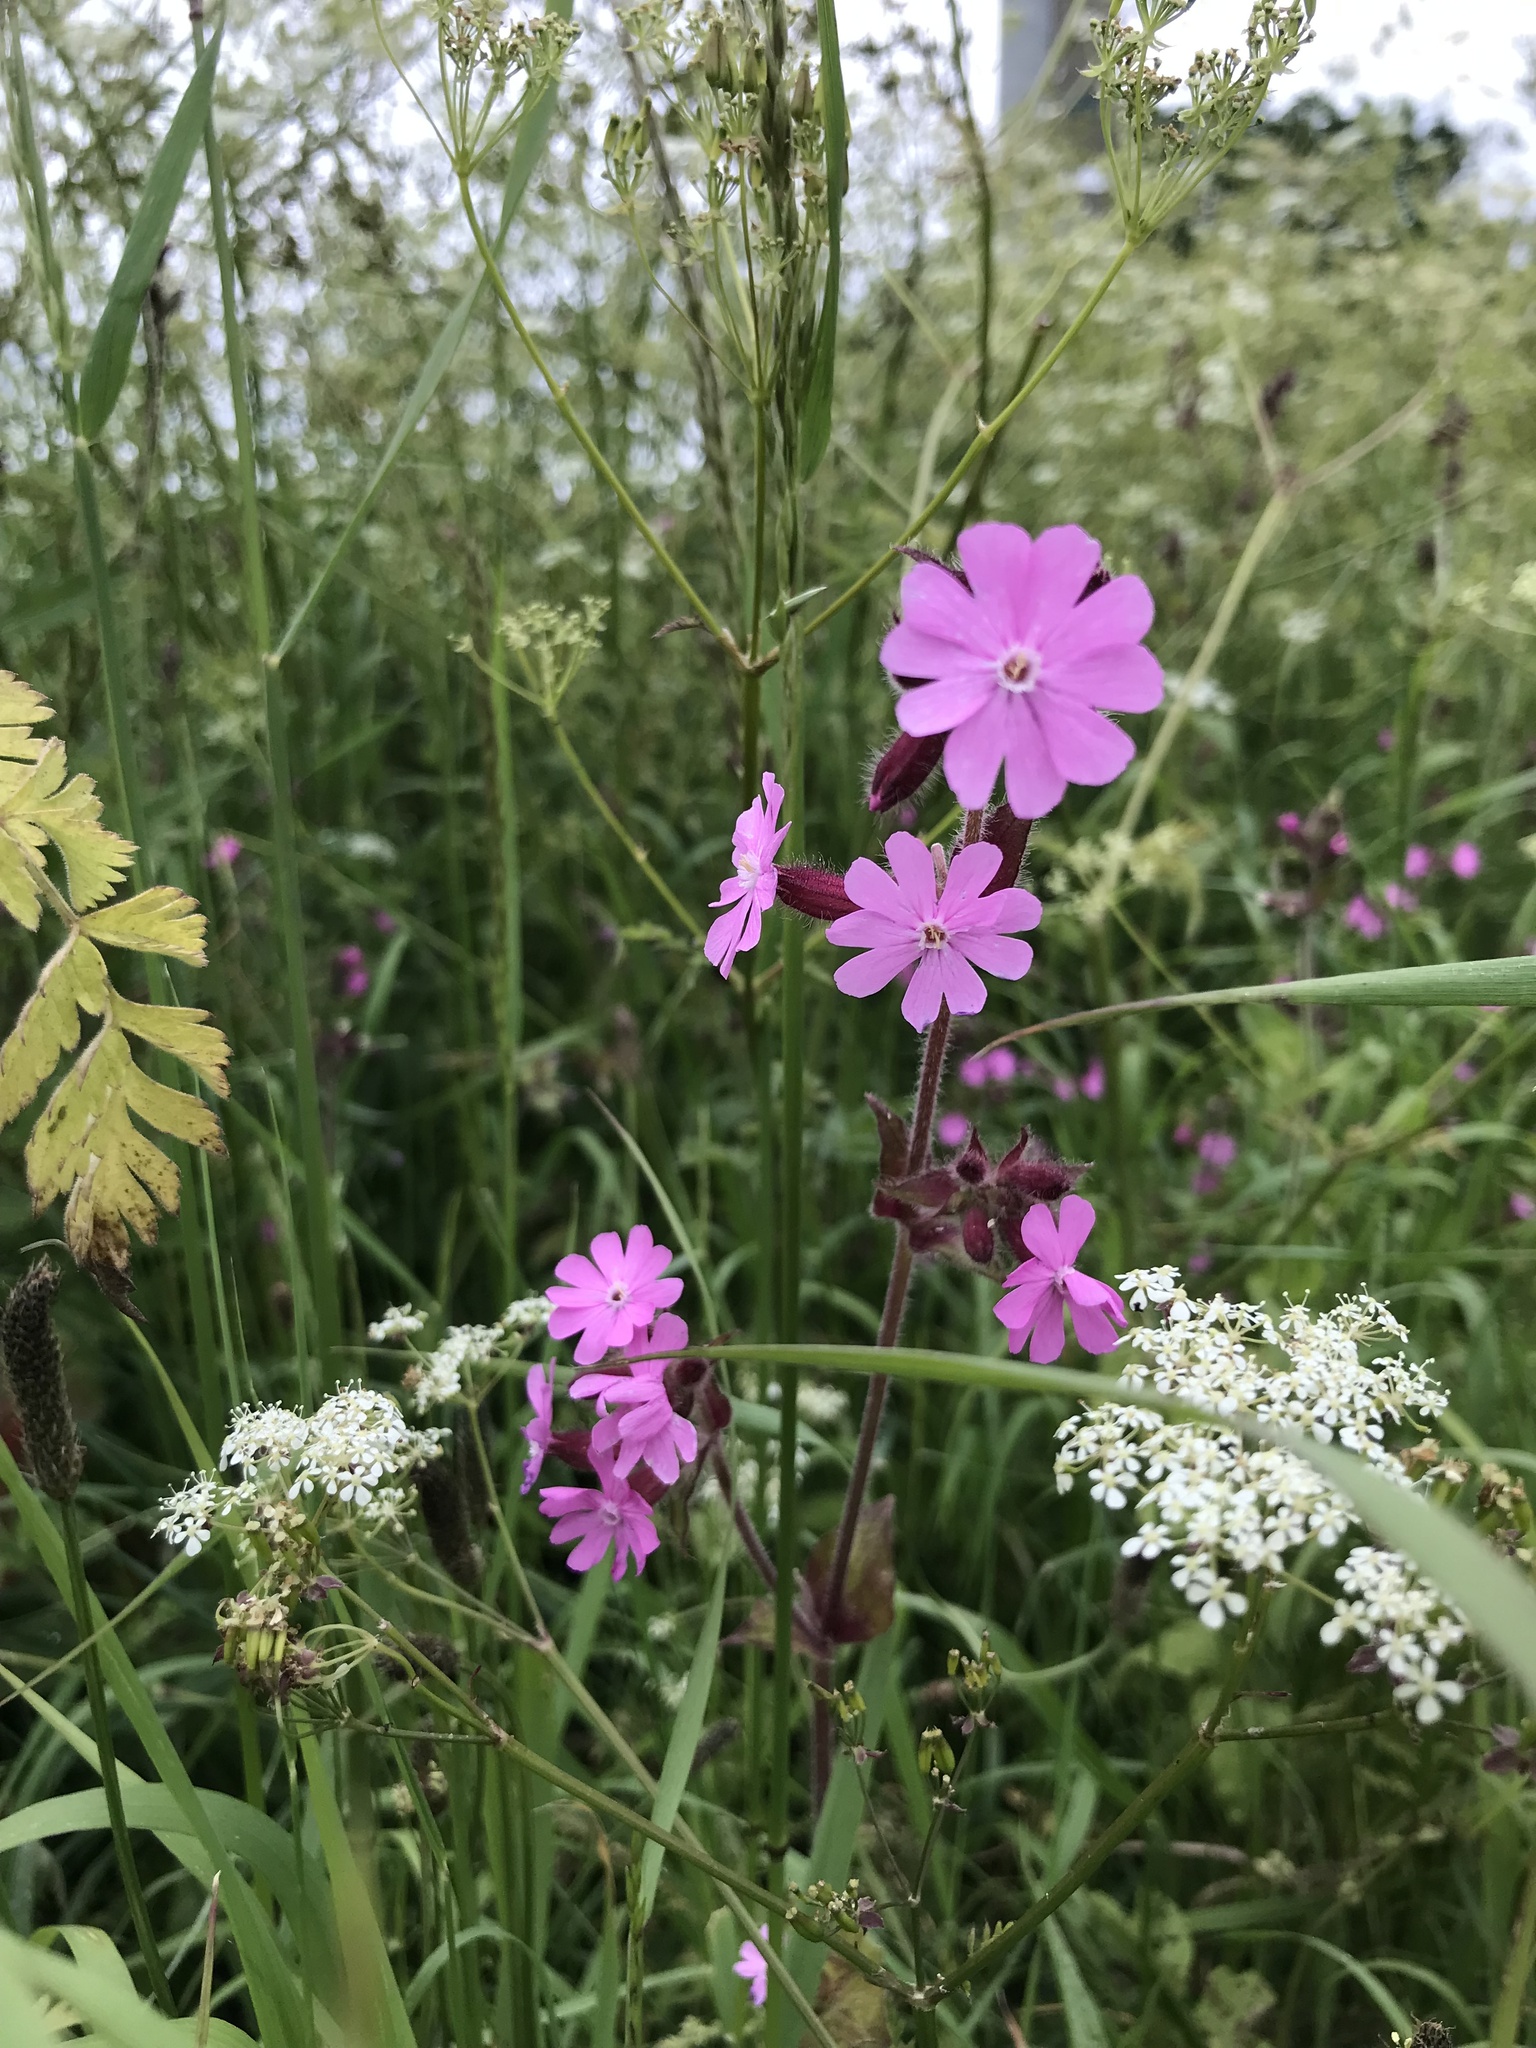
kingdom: Plantae
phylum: Tracheophyta
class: Magnoliopsida
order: Caryophyllales
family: Caryophyllaceae
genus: Silene
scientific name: Silene dioica
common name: Red campion
